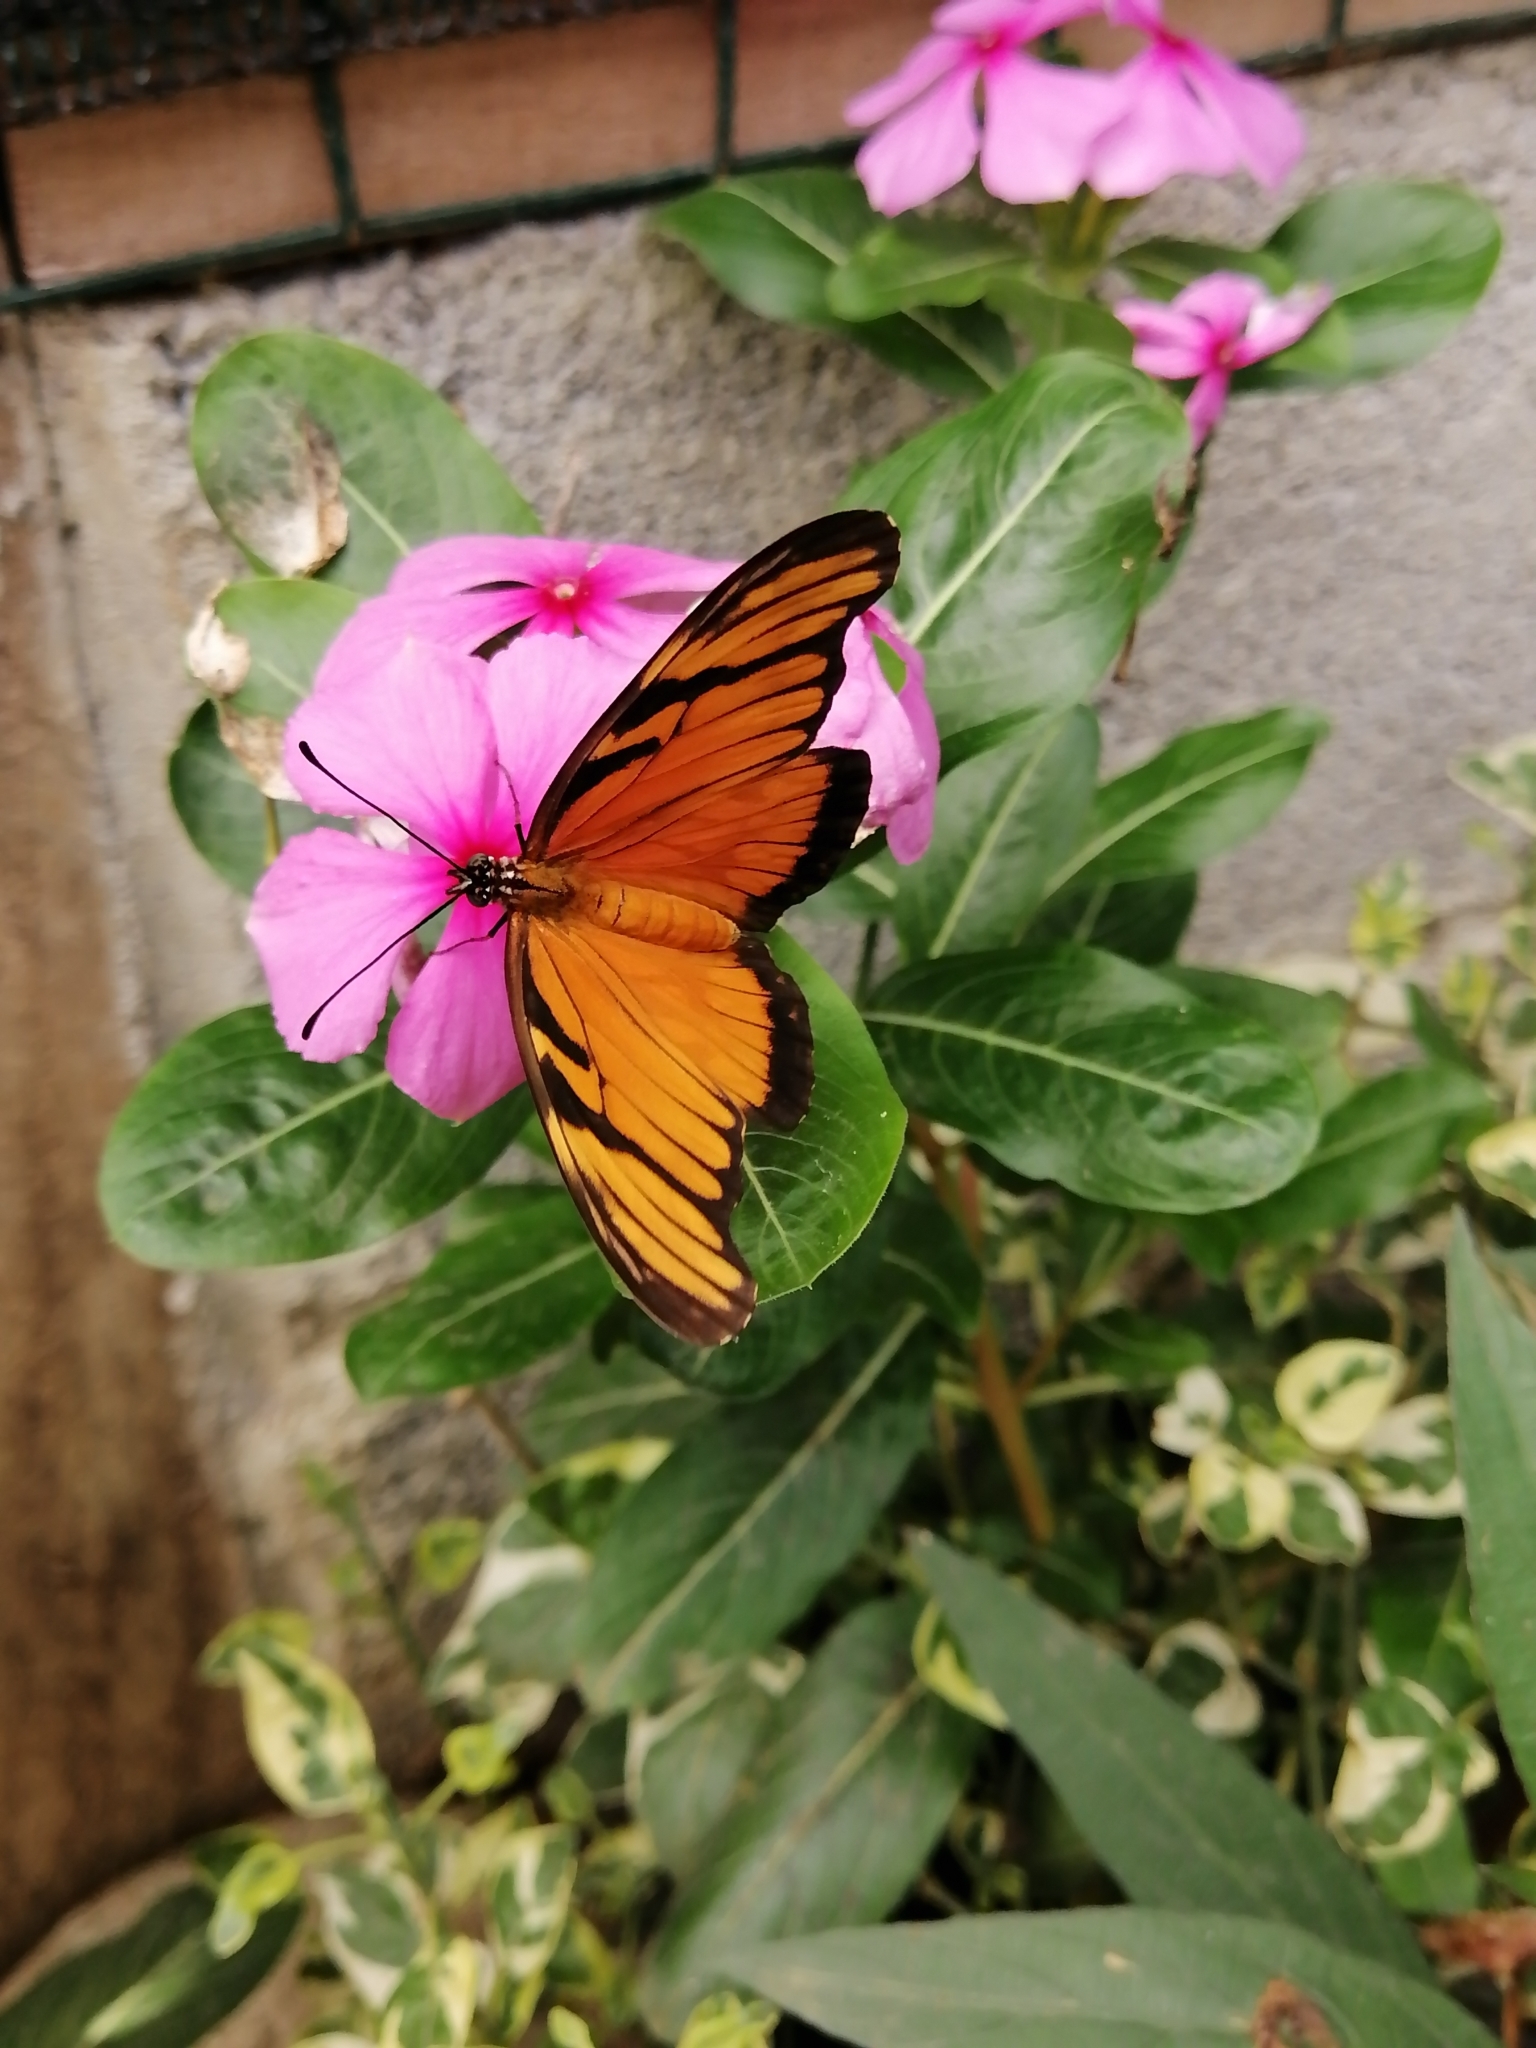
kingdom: Animalia
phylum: Arthropoda
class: Insecta
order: Lepidoptera
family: Nymphalidae
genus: Dione
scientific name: Dione juno
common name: Juno silverspot
